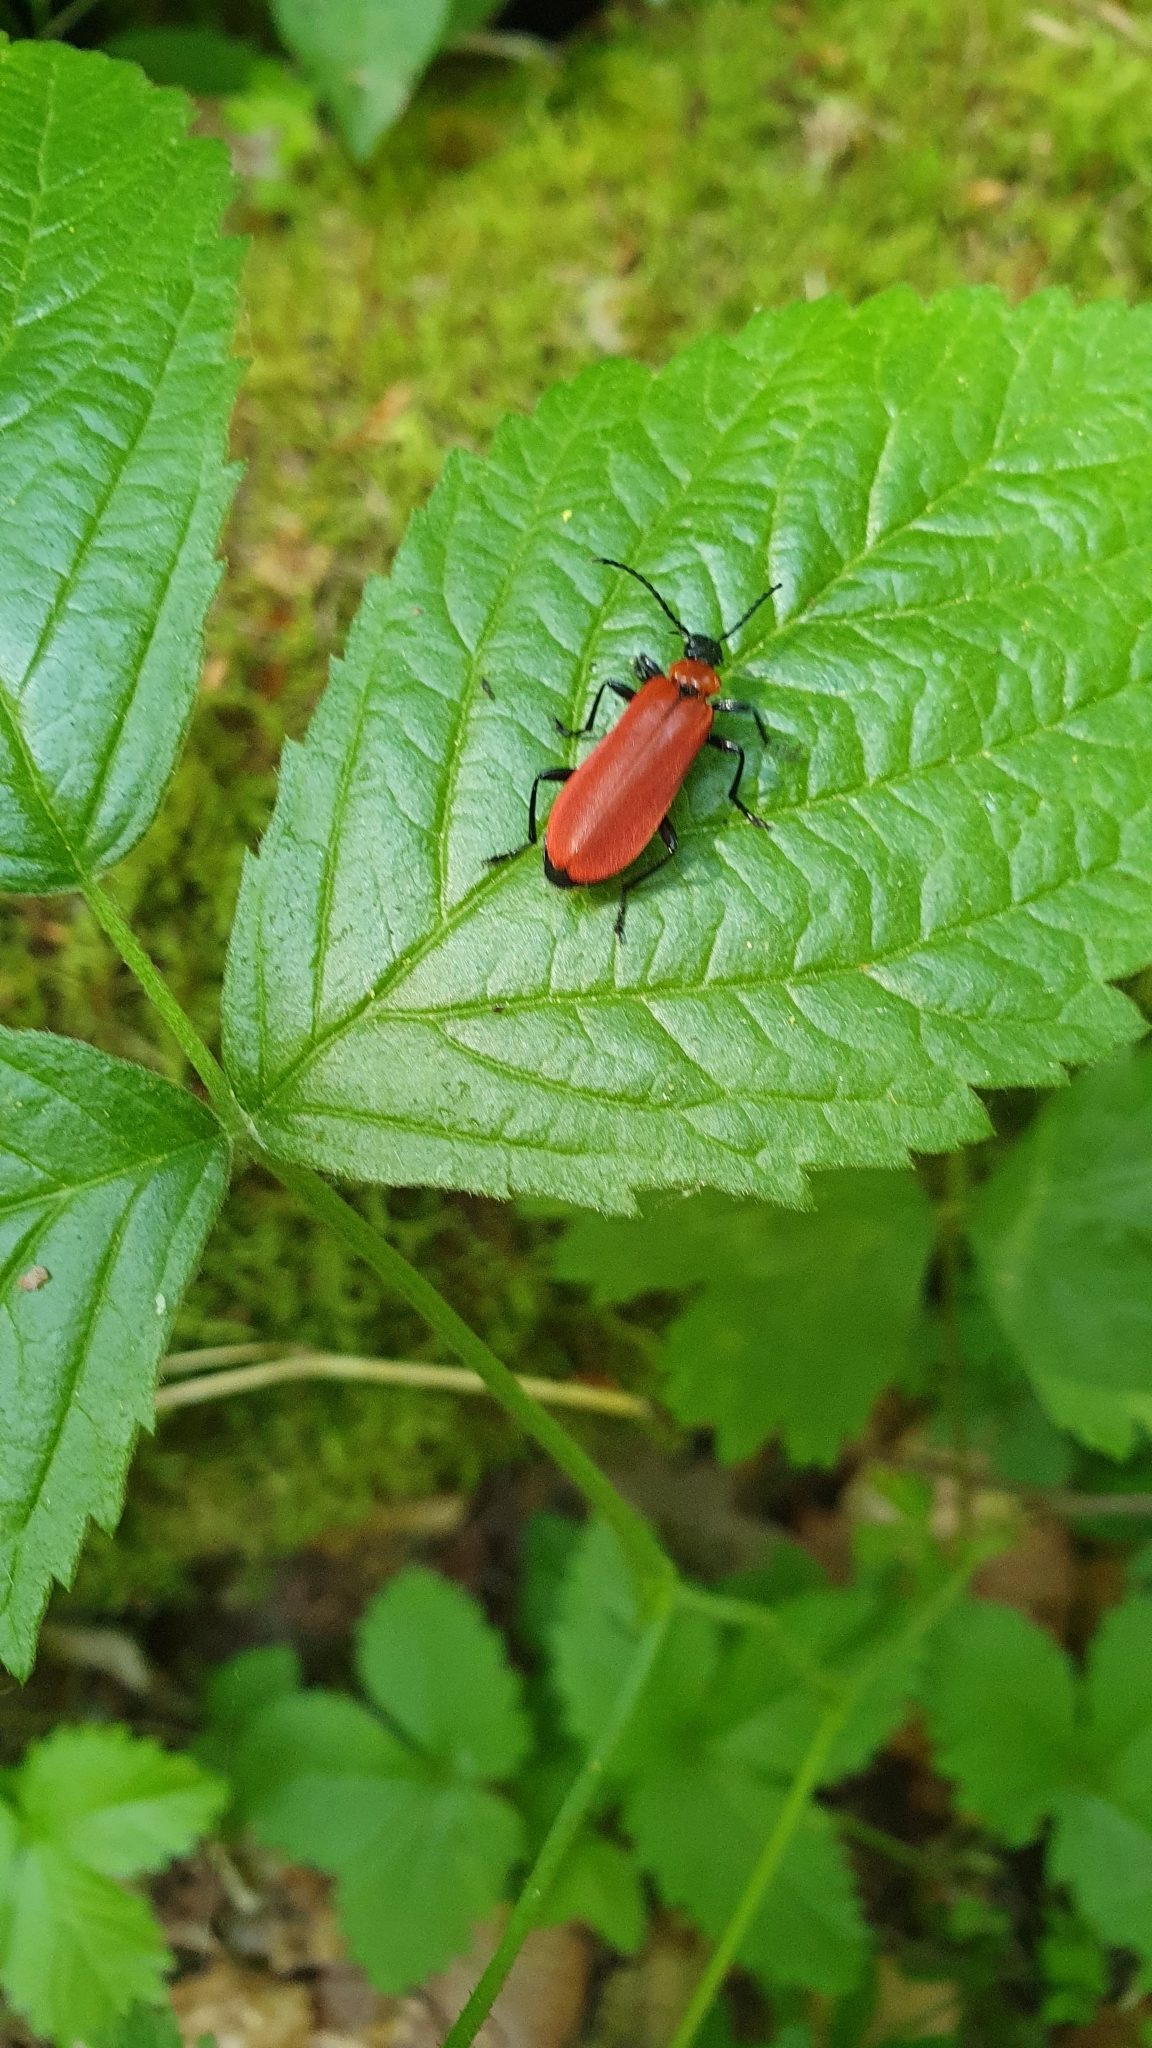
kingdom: Animalia
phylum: Arthropoda
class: Insecta
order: Coleoptera
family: Pyrochroidae
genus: Pyrochroa
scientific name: Pyrochroa coccinea
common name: Black-headed cardinal beetle
